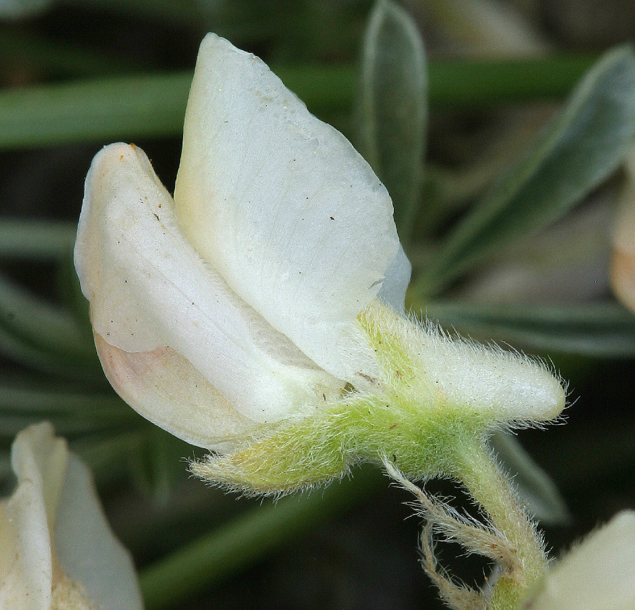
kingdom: Plantae
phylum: Tracheophyta
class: Magnoliopsida
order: Fabales
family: Fabaceae
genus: Lupinus
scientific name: Lupinus arbustus
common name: Montana lupine
